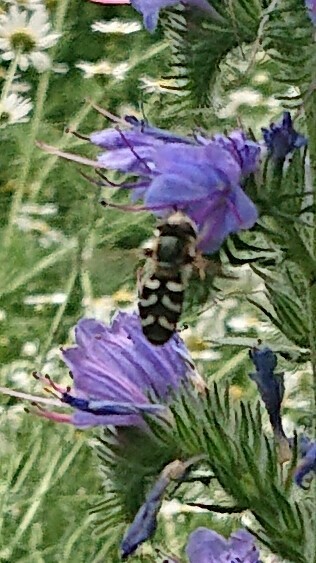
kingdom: Animalia
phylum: Arthropoda
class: Insecta
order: Diptera
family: Syrphidae
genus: Scaeva
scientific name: Scaeva pyrastri
